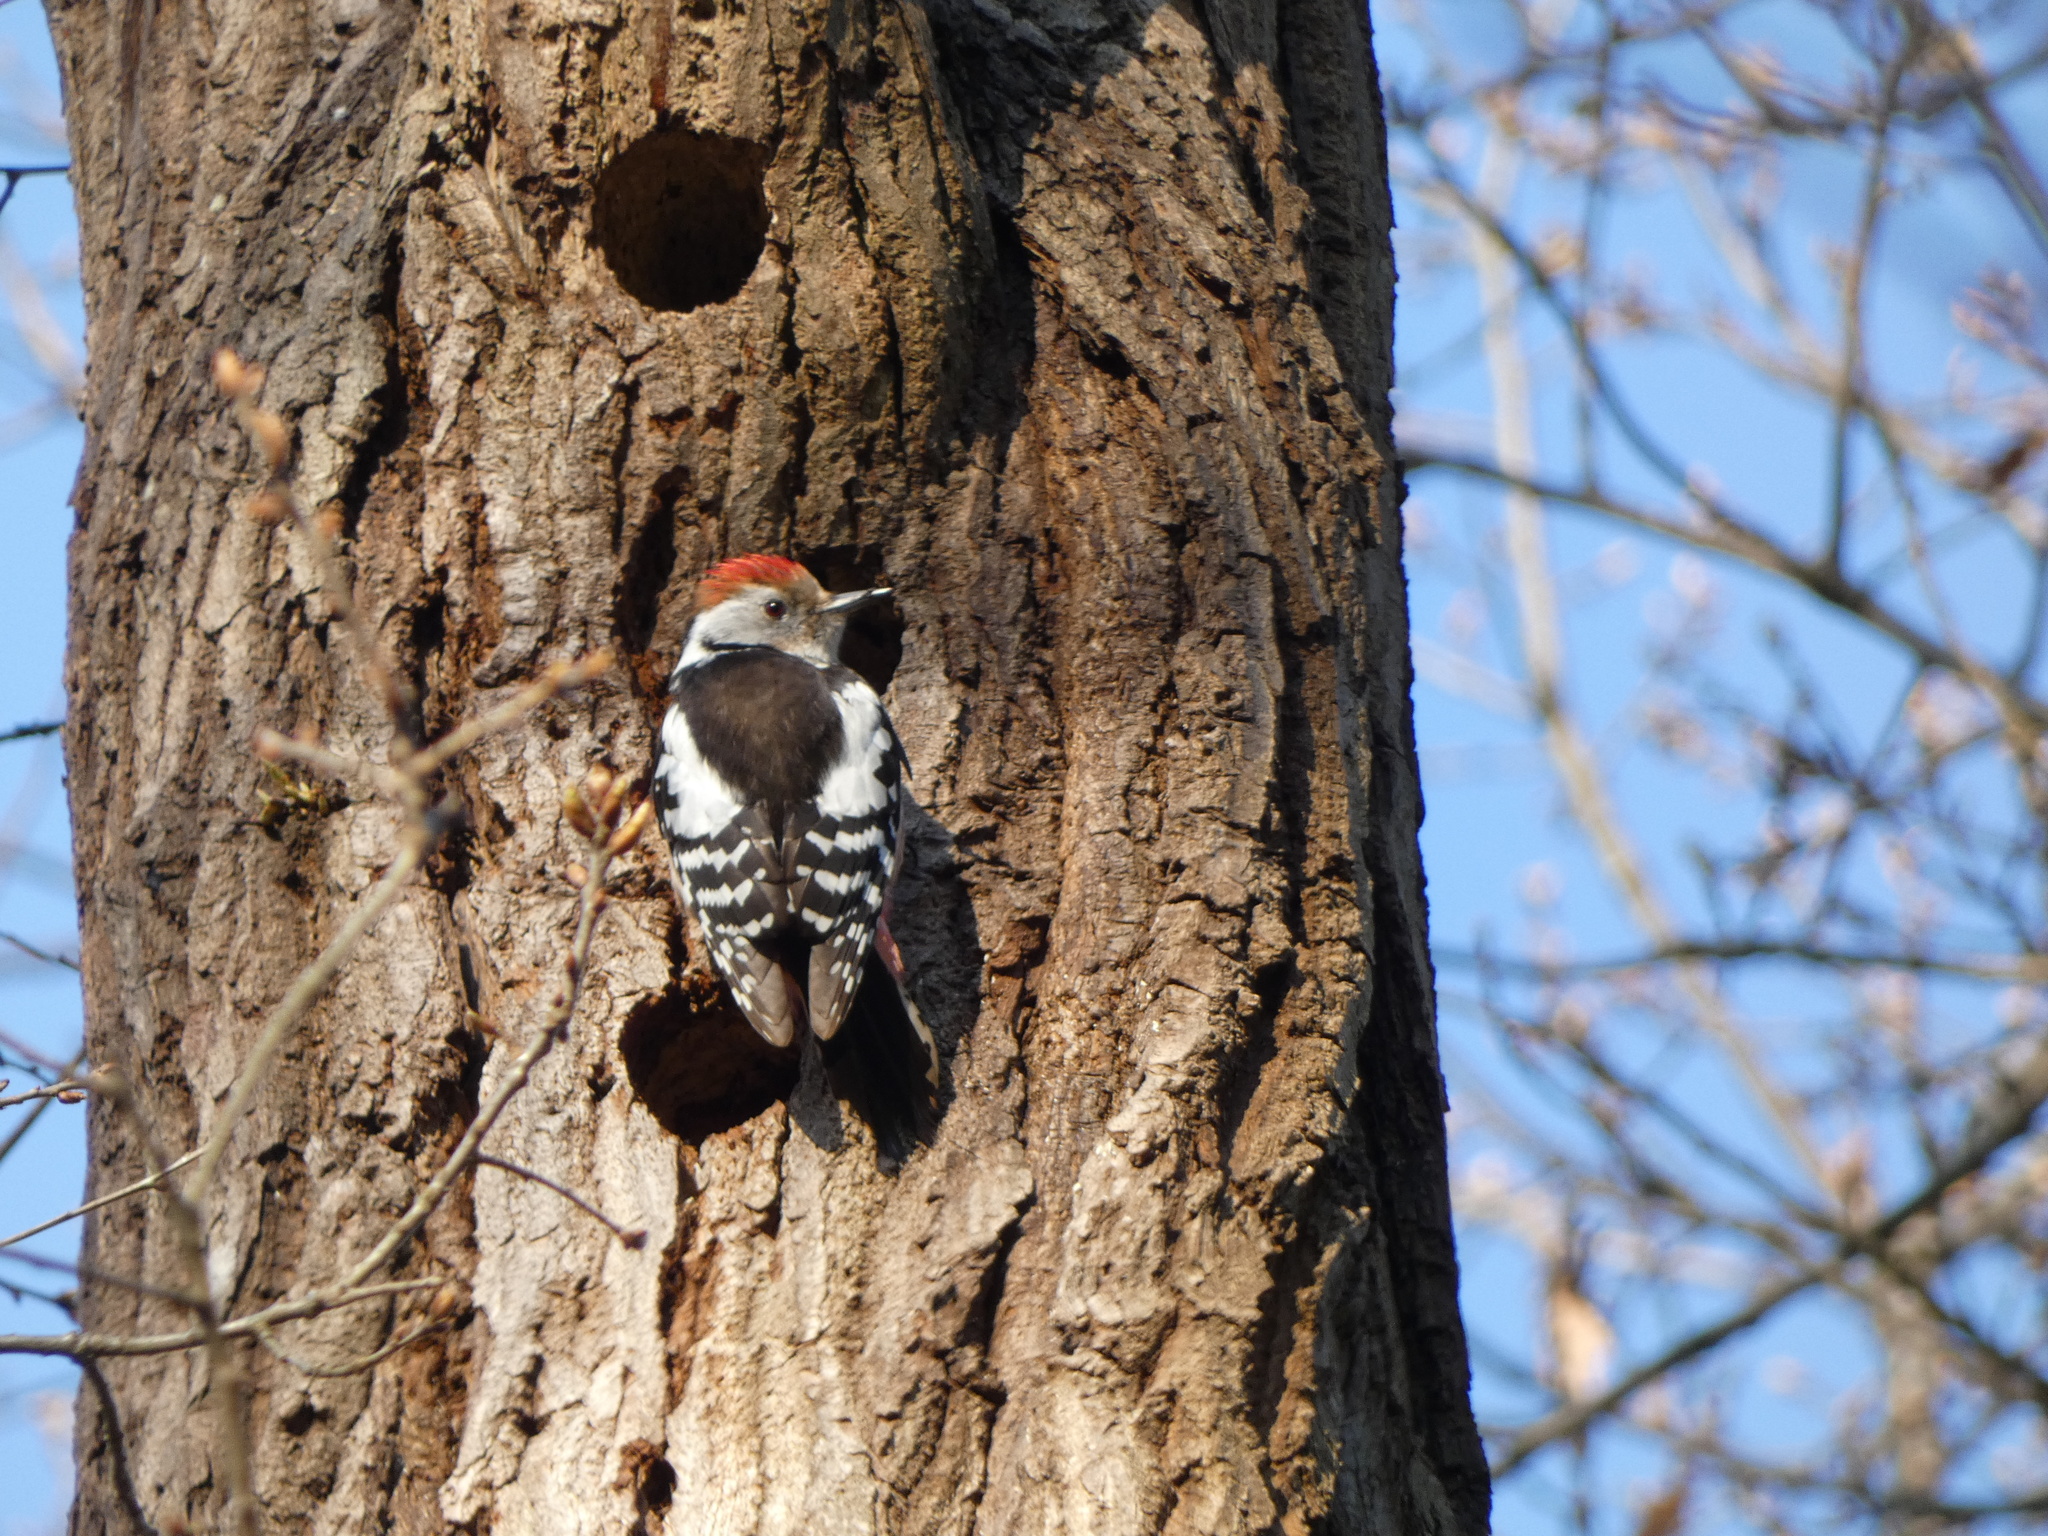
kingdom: Animalia
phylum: Chordata
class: Aves
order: Piciformes
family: Picidae
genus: Dendrocoptes
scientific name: Dendrocoptes medius
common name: Middle spotted woodpecker
